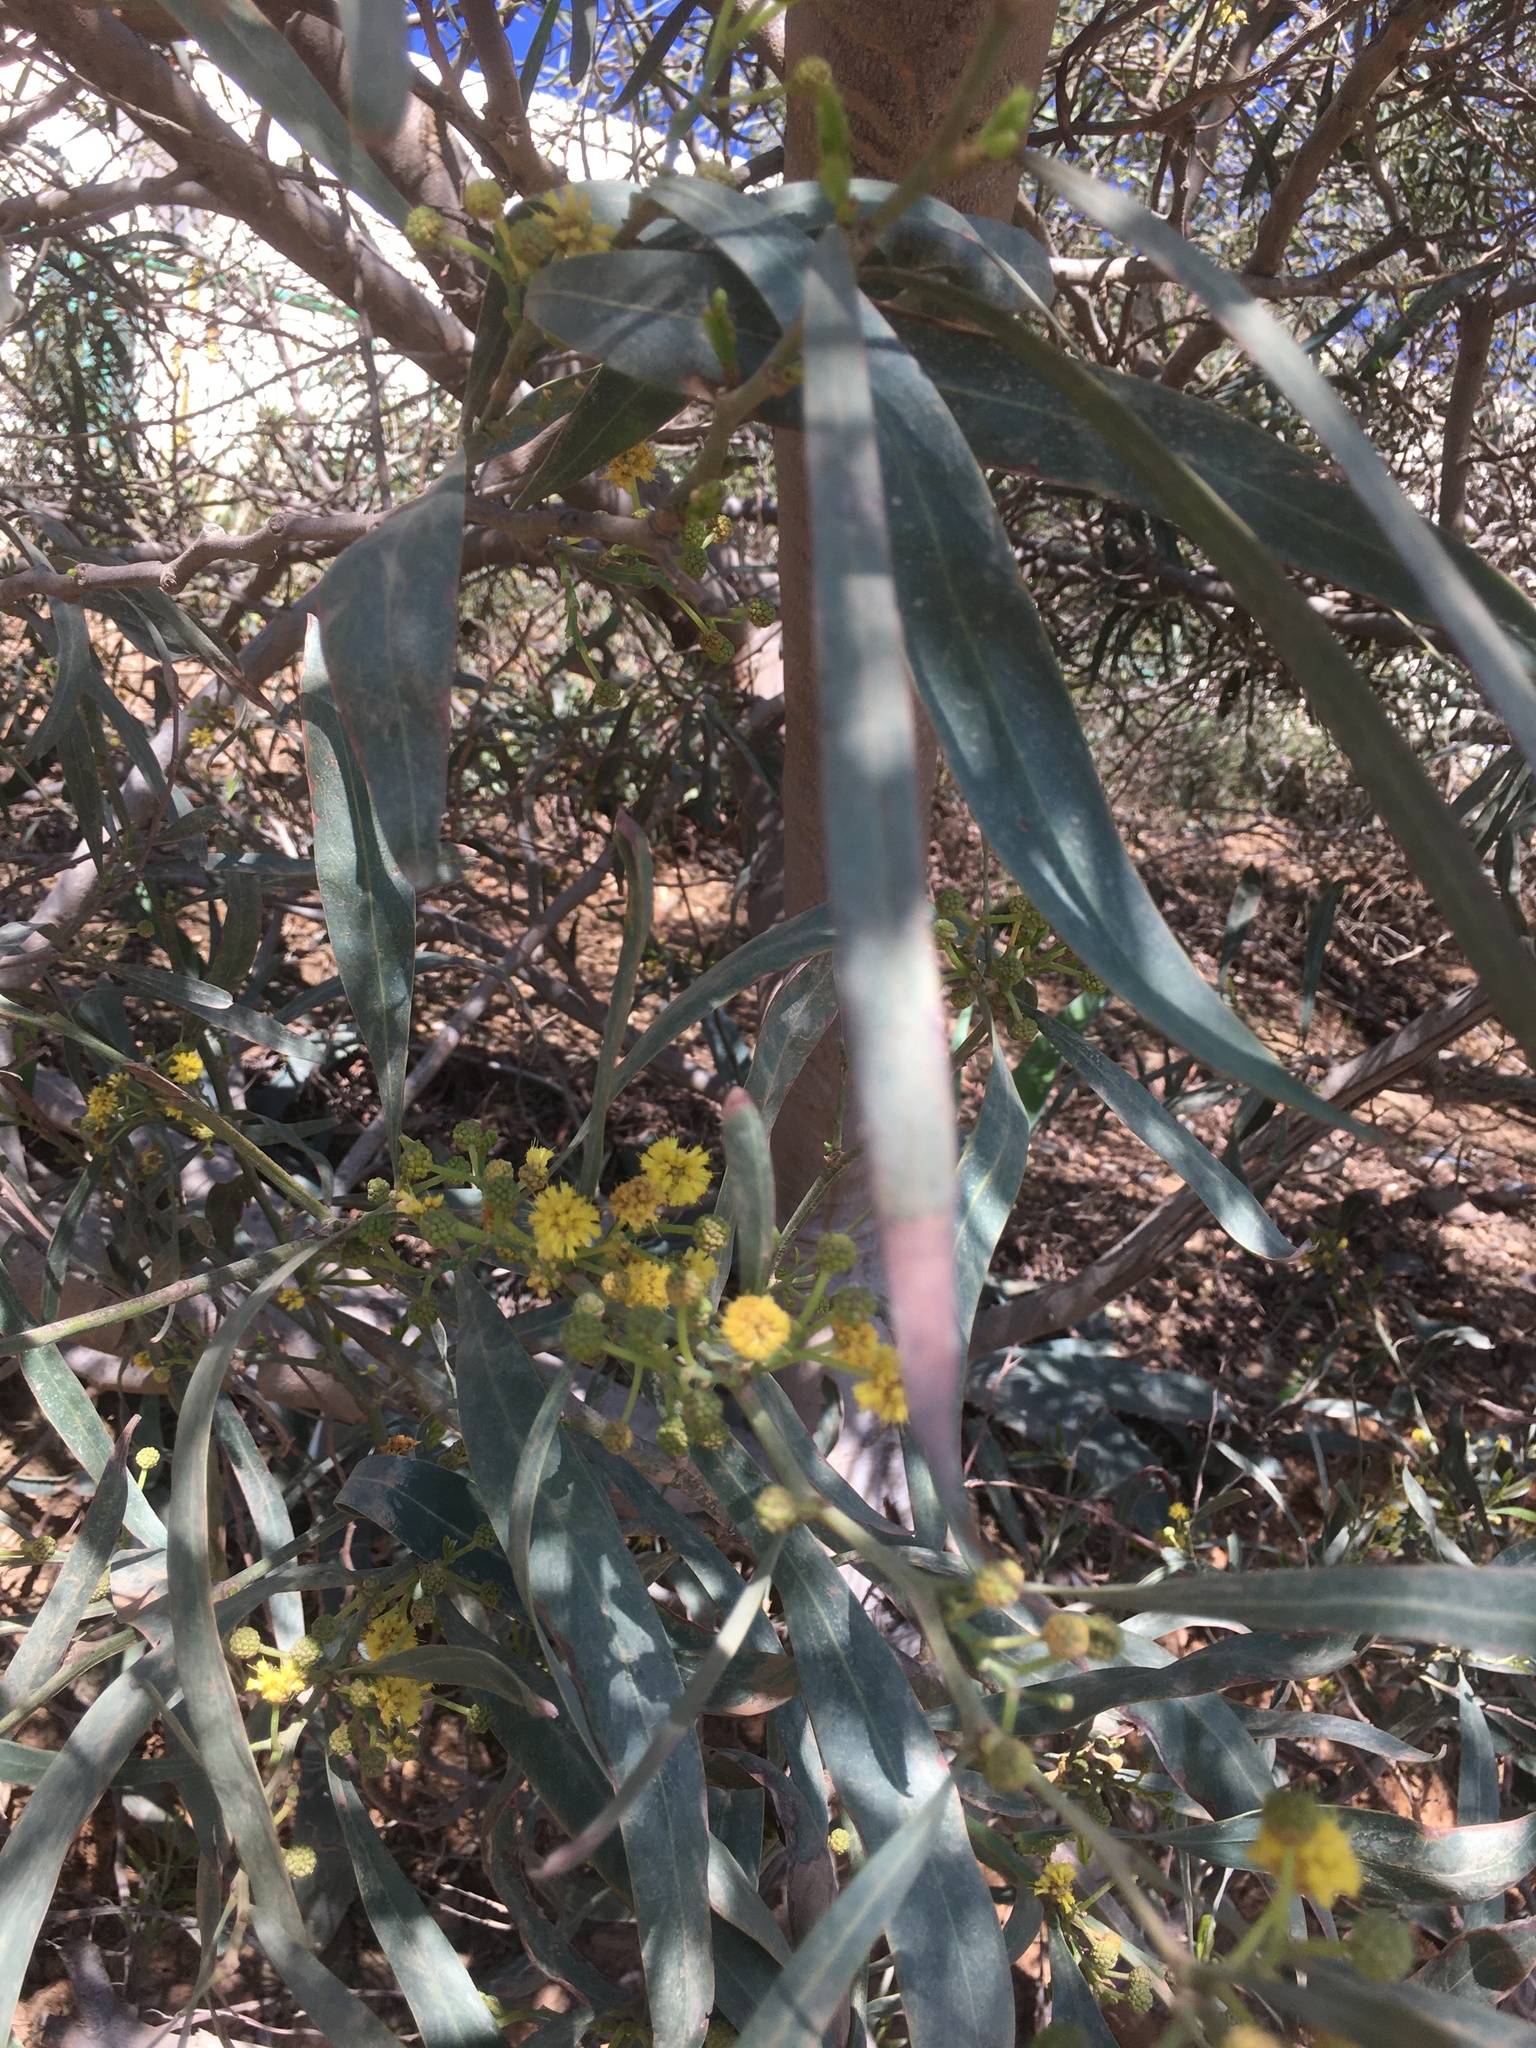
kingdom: Plantae
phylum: Tracheophyta
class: Magnoliopsida
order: Fabales
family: Fabaceae
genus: Acacia
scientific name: Acacia retinodes
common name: Silver wattle
